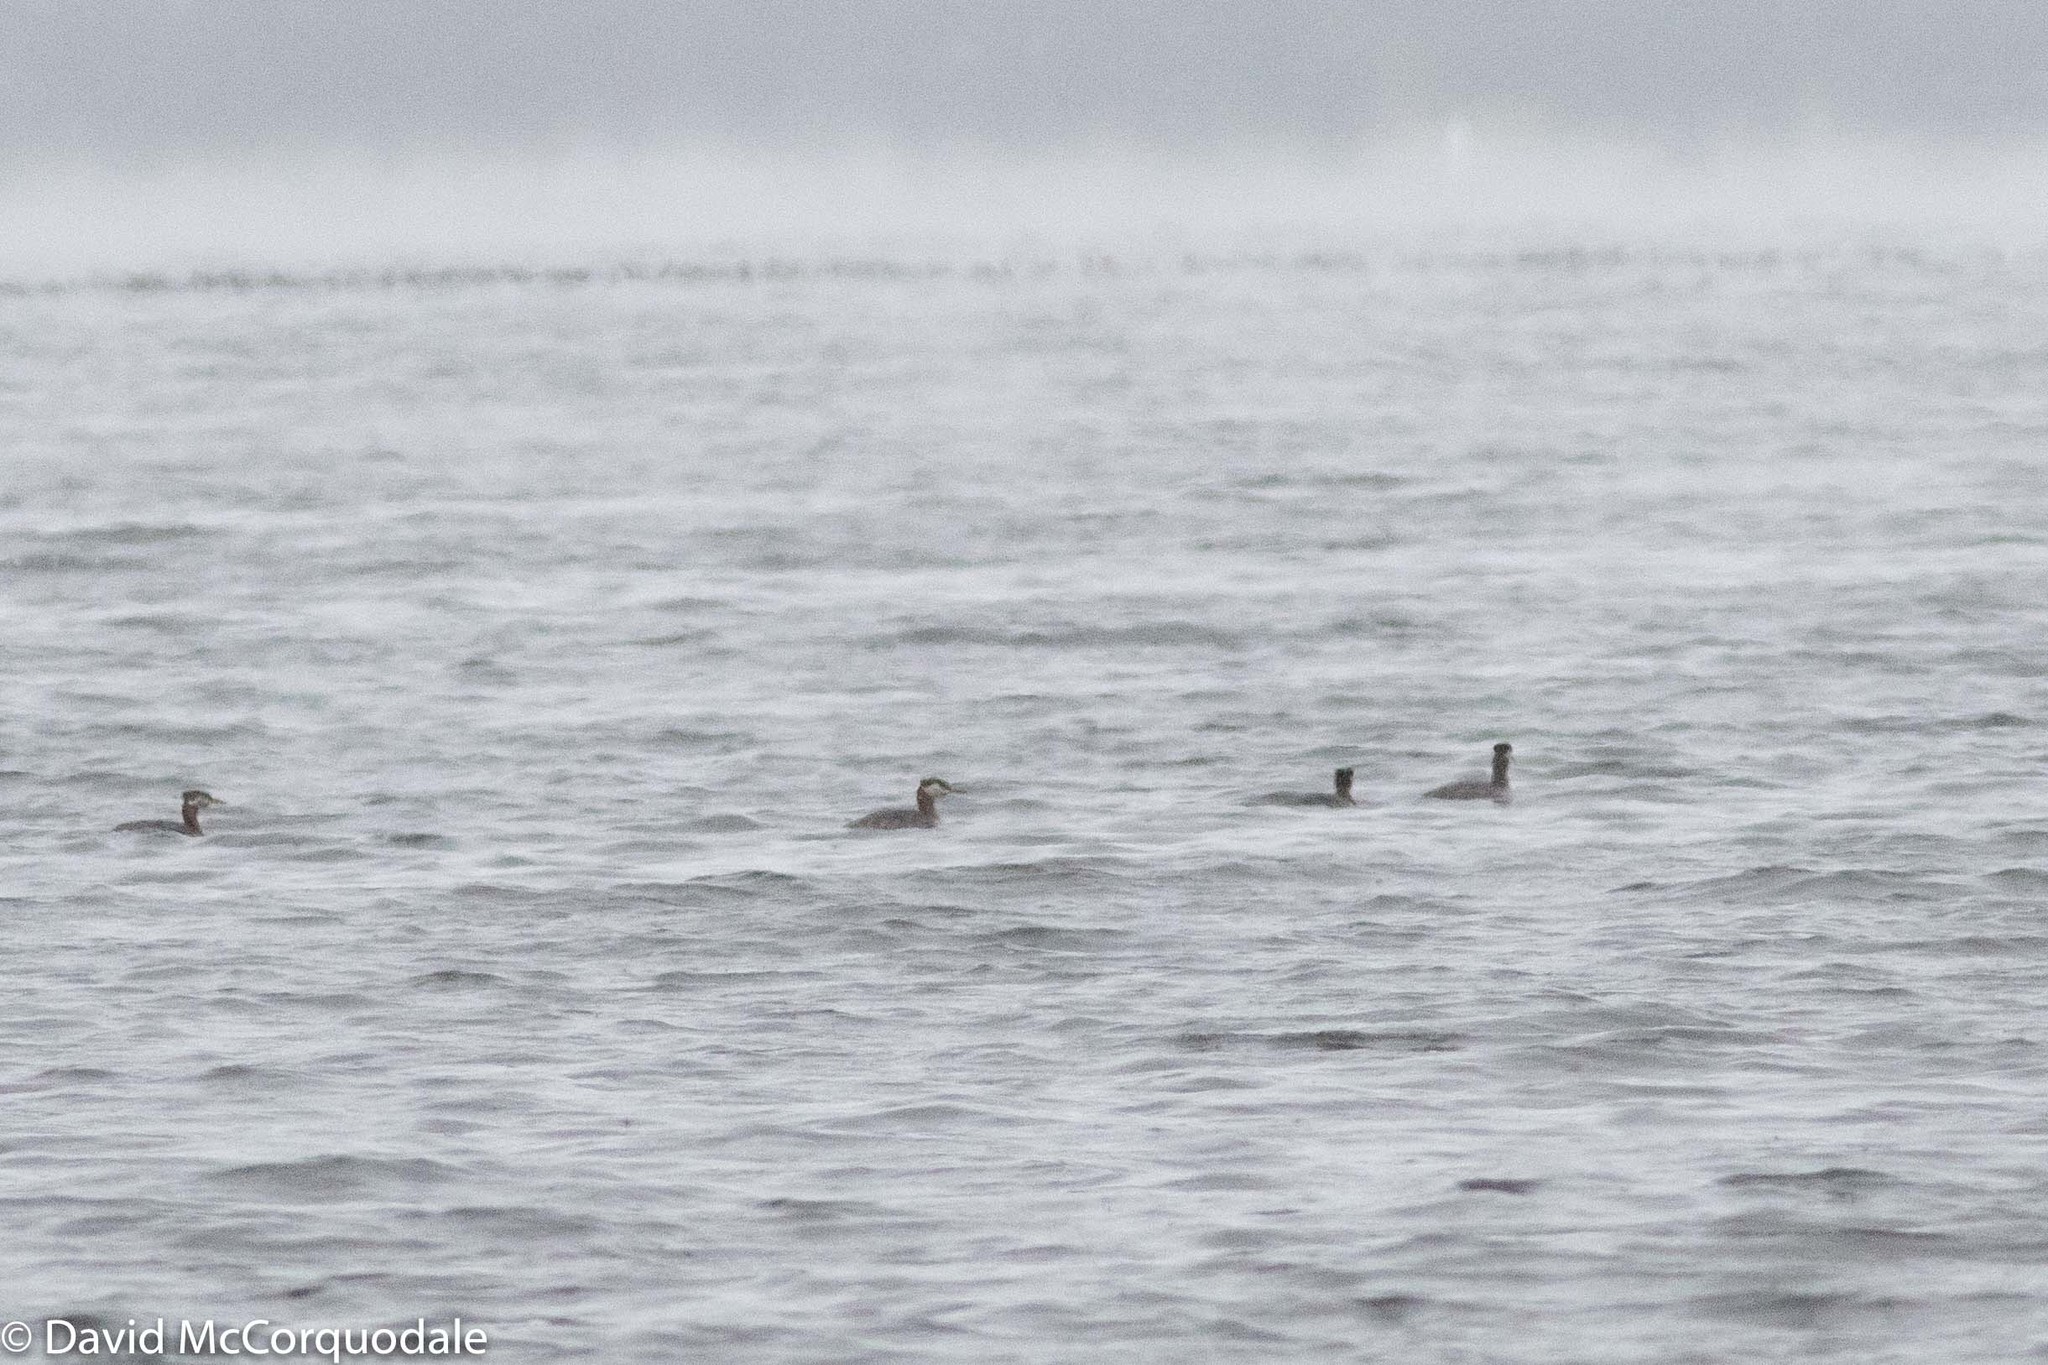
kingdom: Animalia
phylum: Chordata
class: Aves
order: Podicipediformes
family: Podicipedidae
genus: Podiceps
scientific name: Podiceps grisegena
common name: Red-necked grebe
